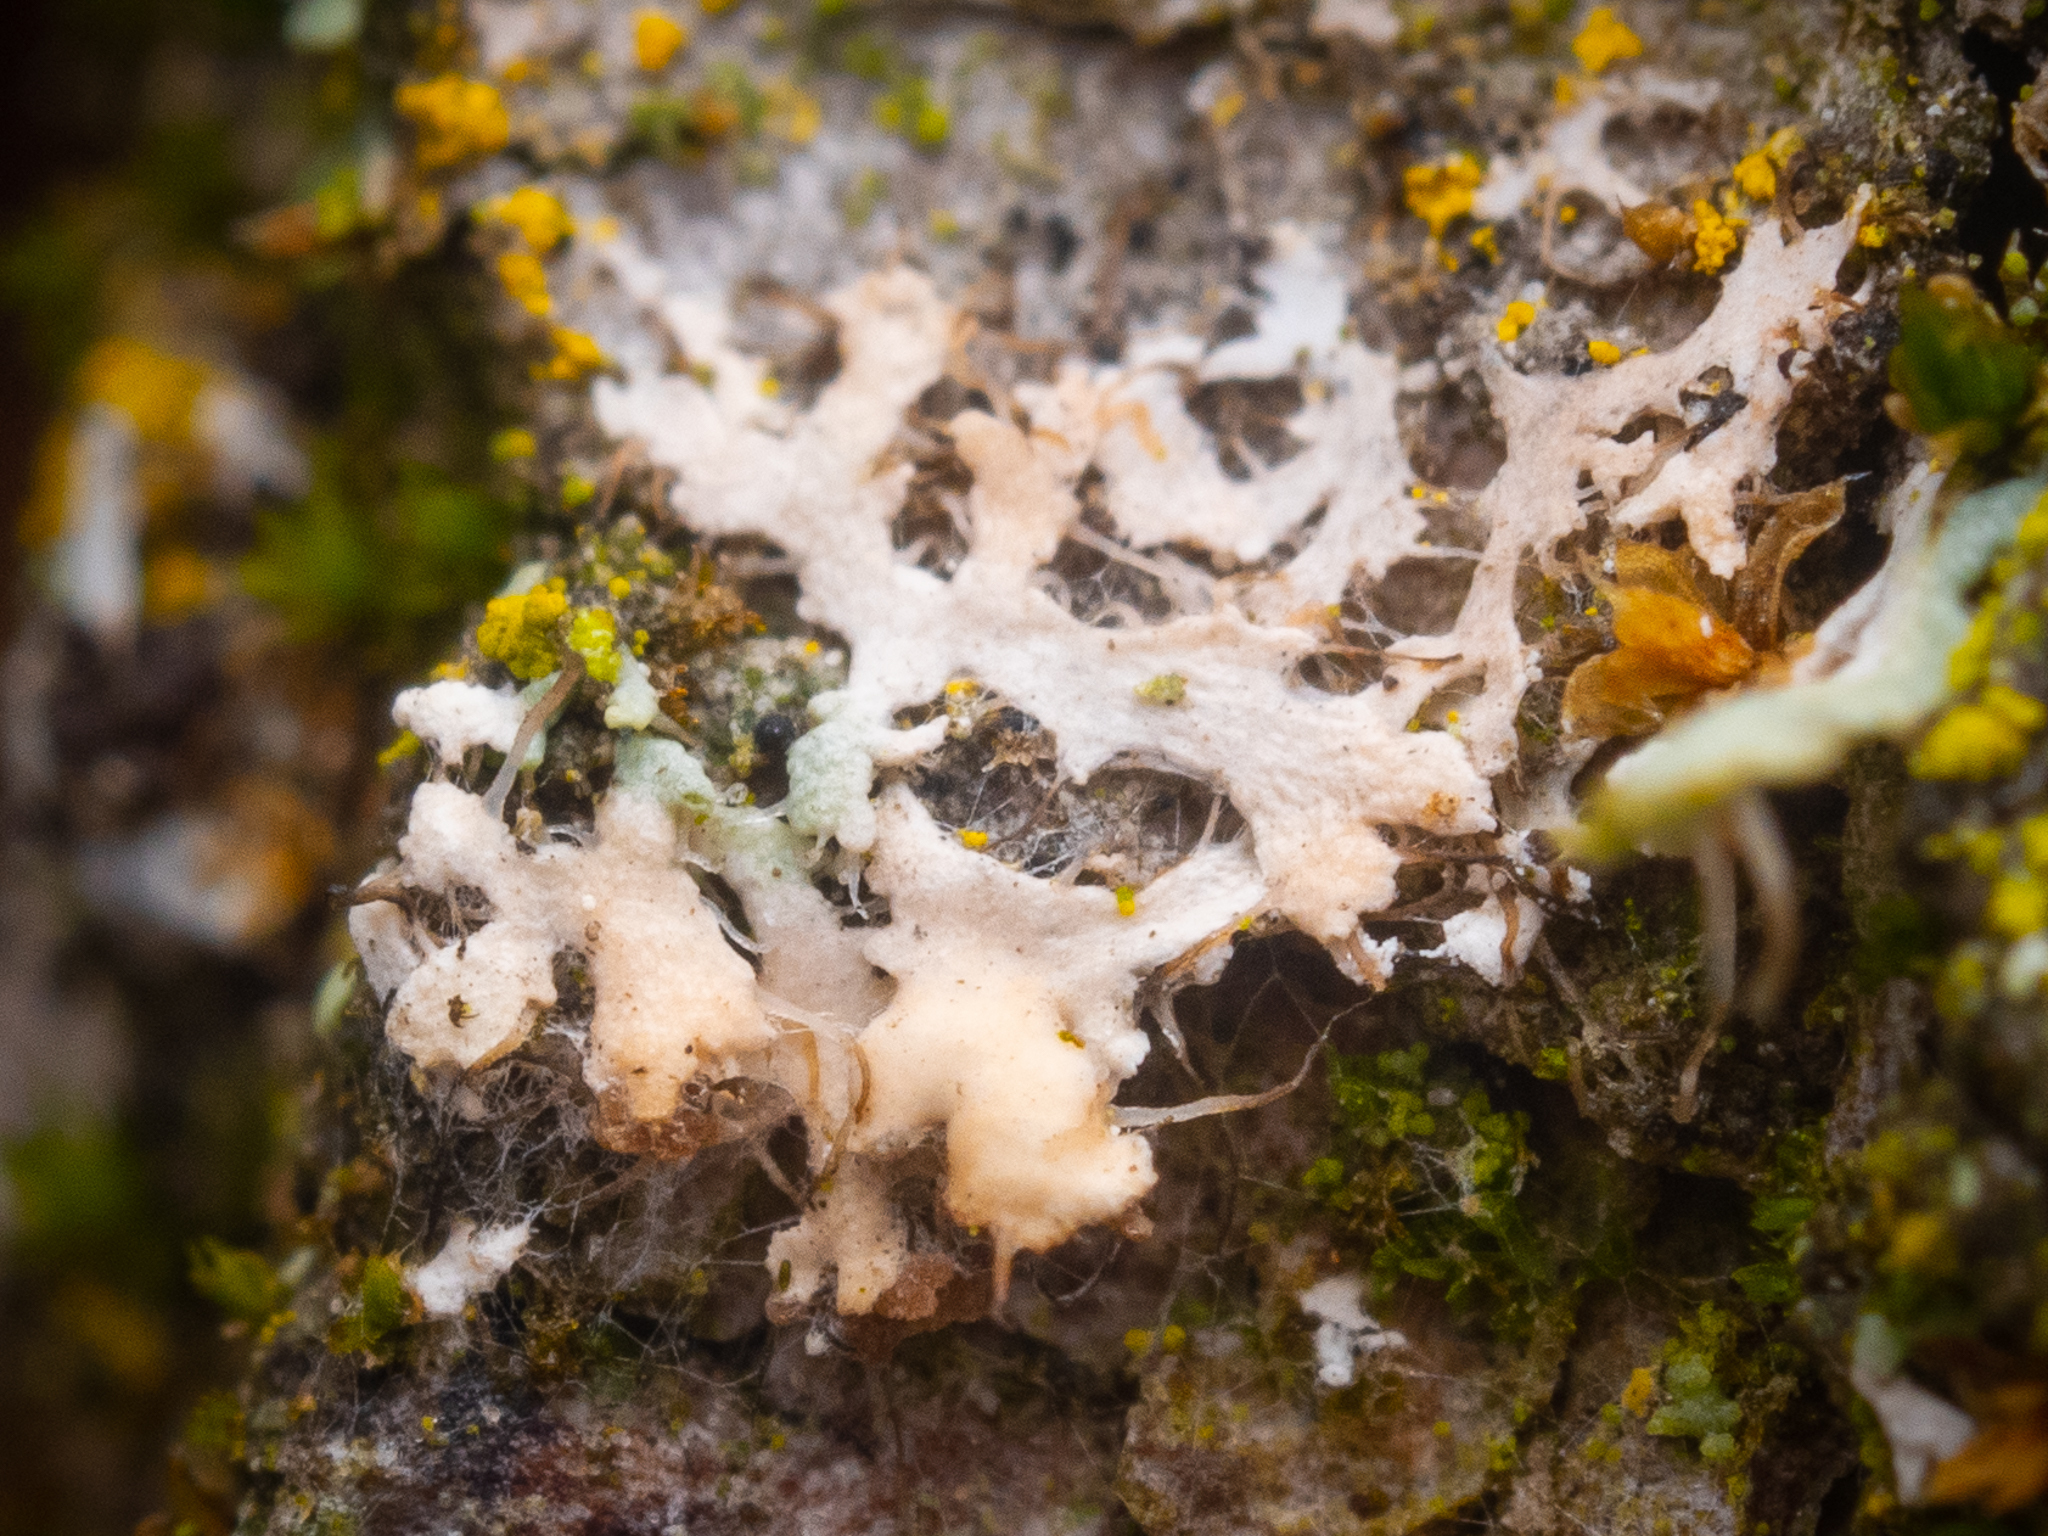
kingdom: Fungi
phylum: Basidiomycota
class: Agaricomycetes
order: Corticiales
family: Corticiaceae
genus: Erythricium
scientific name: Erythricium aurantiacum
